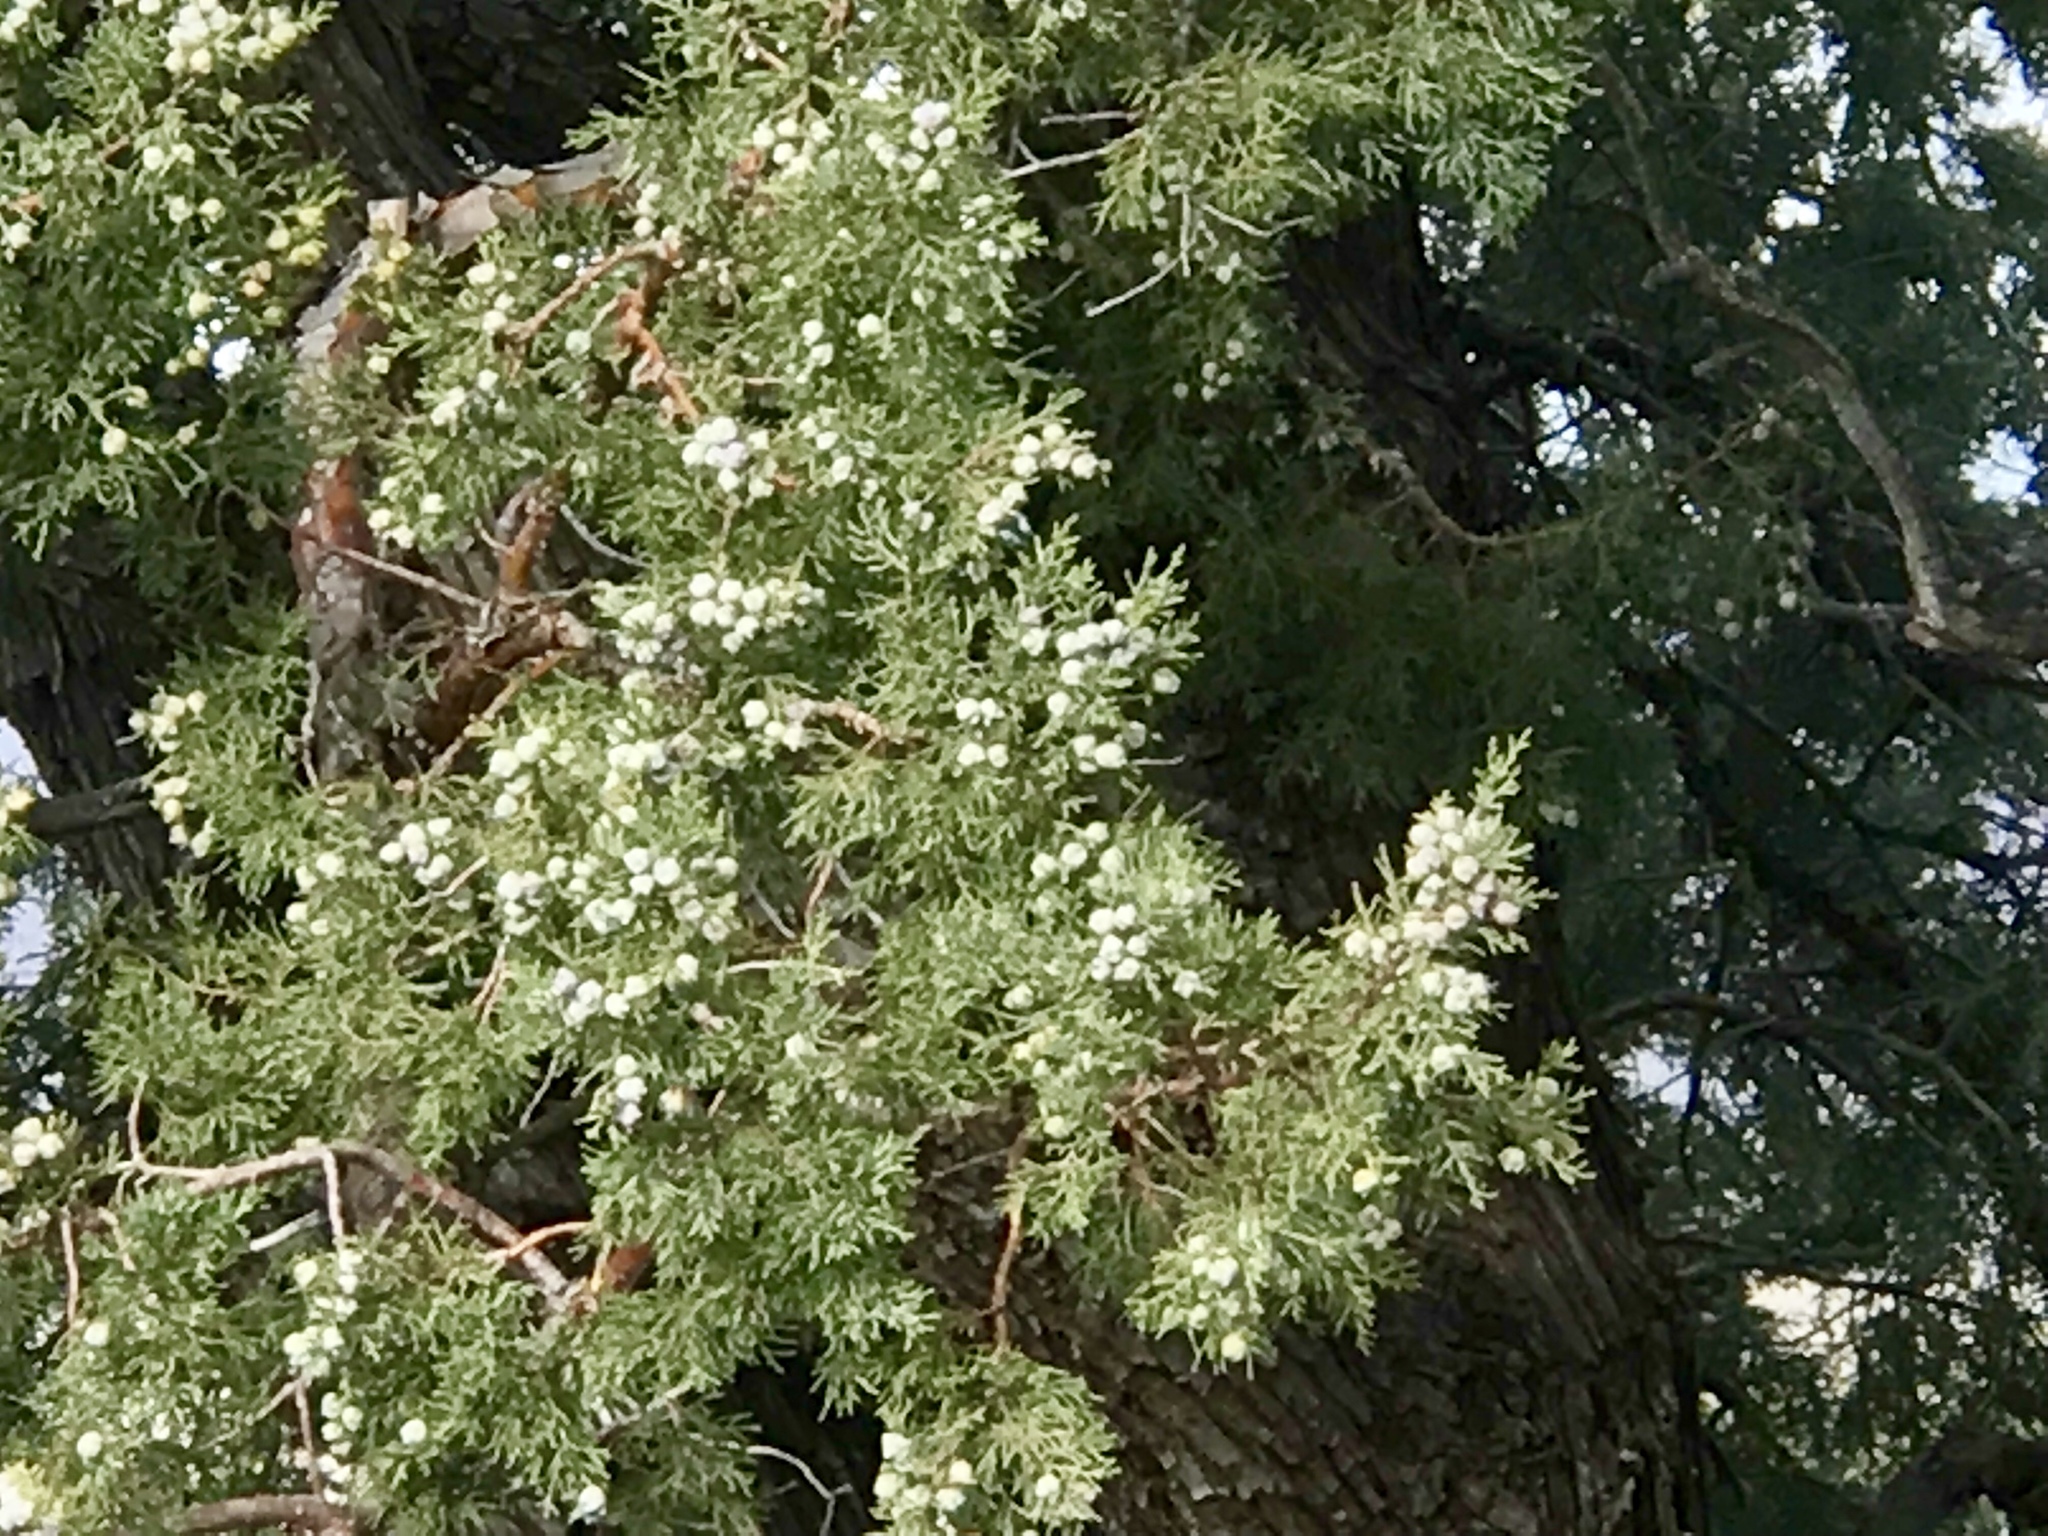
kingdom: Plantae
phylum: Tracheophyta
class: Pinopsida
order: Pinales
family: Cupressaceae
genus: Juniperus
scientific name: Juniperus deppeana
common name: Alligator juniper
